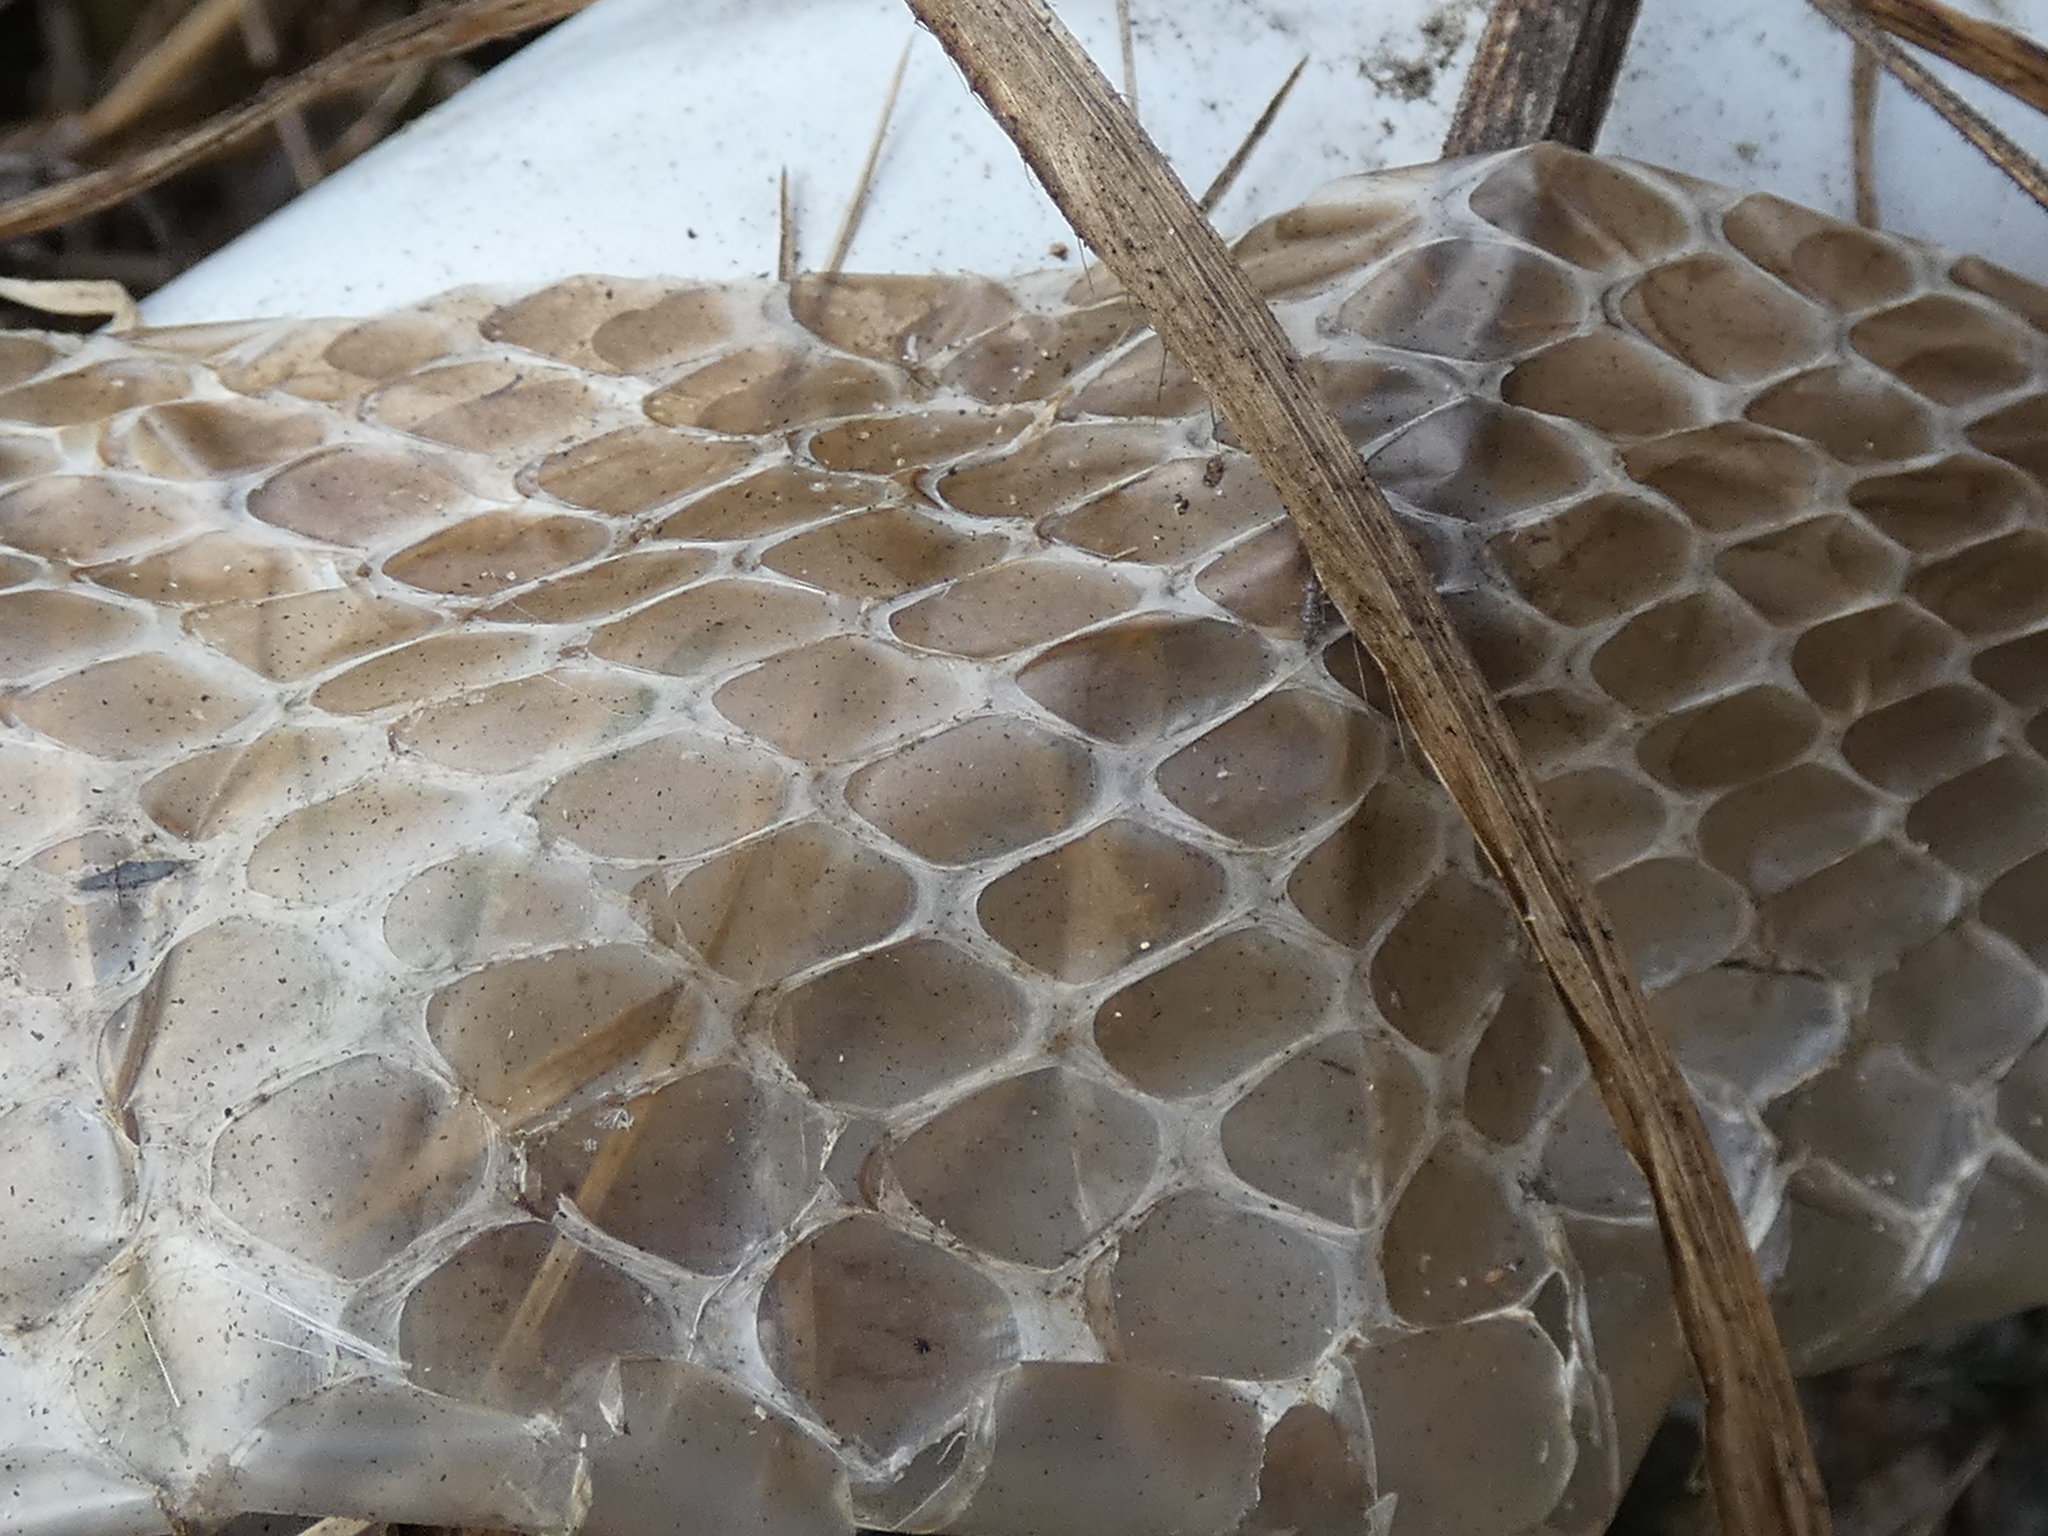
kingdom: Animalia
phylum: Chordata
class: Squamata
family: Colubridae
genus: Coluber
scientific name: Coluber constrictor
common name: Eastern racer
